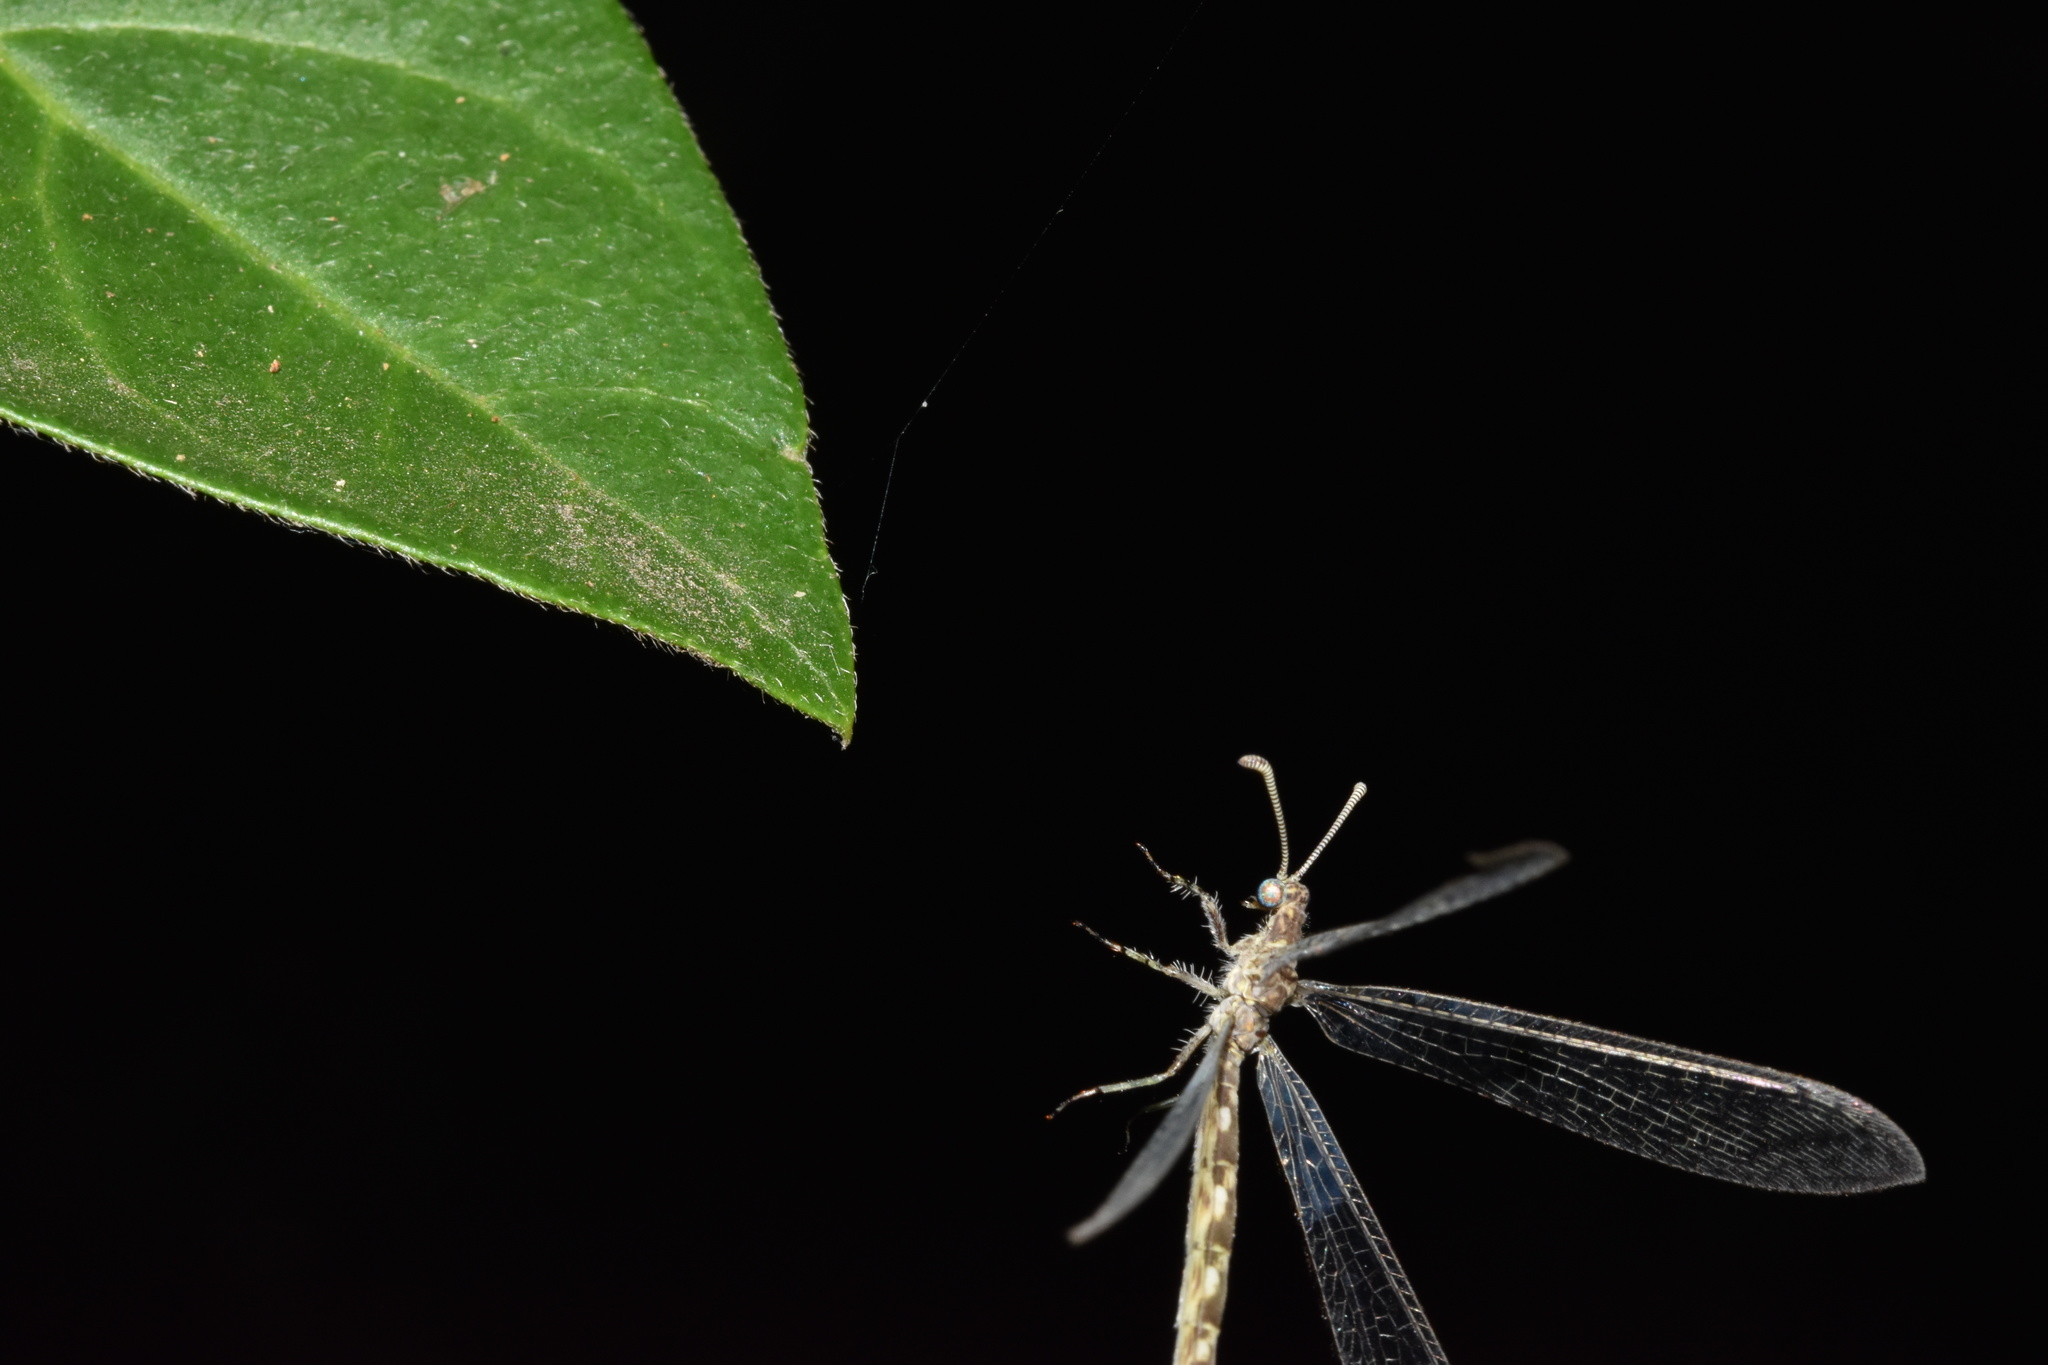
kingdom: Animalia
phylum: Arthropoda
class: Insecta
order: Neuroptera
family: Myrmeleontidae
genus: Syngenes
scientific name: Syngenes longicornis
